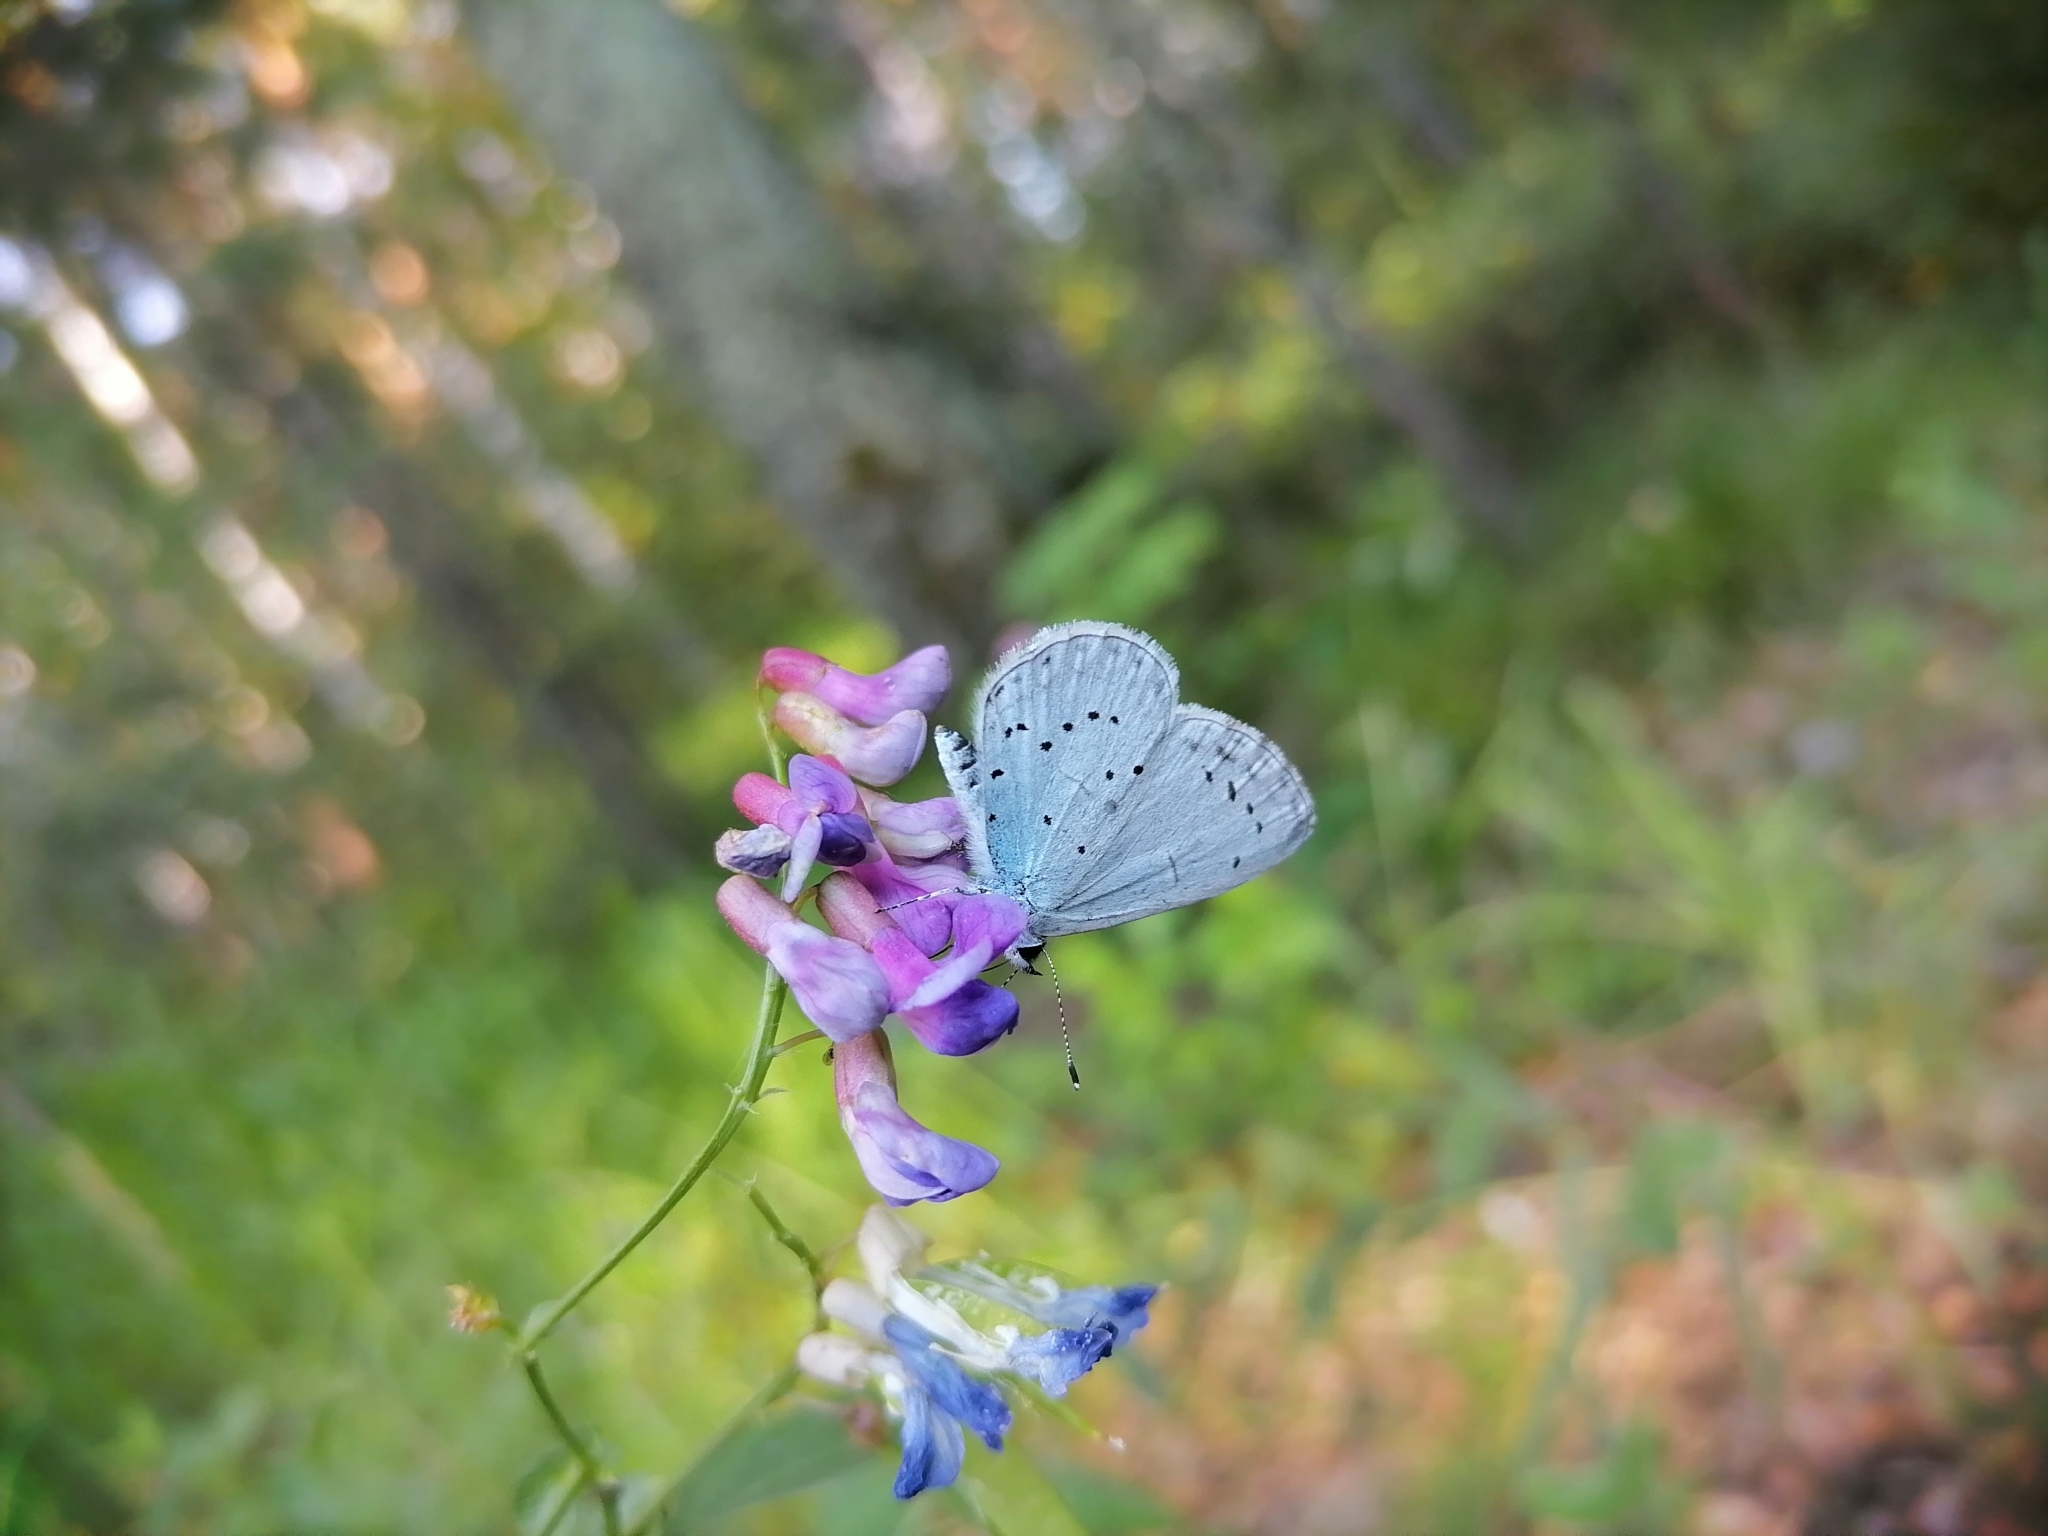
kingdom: Animalia
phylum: Arthropoda
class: Insecta
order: Lepidoptera
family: Lycaenidae
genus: Celastrina
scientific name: Celastrina argiolus
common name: Holly blue
